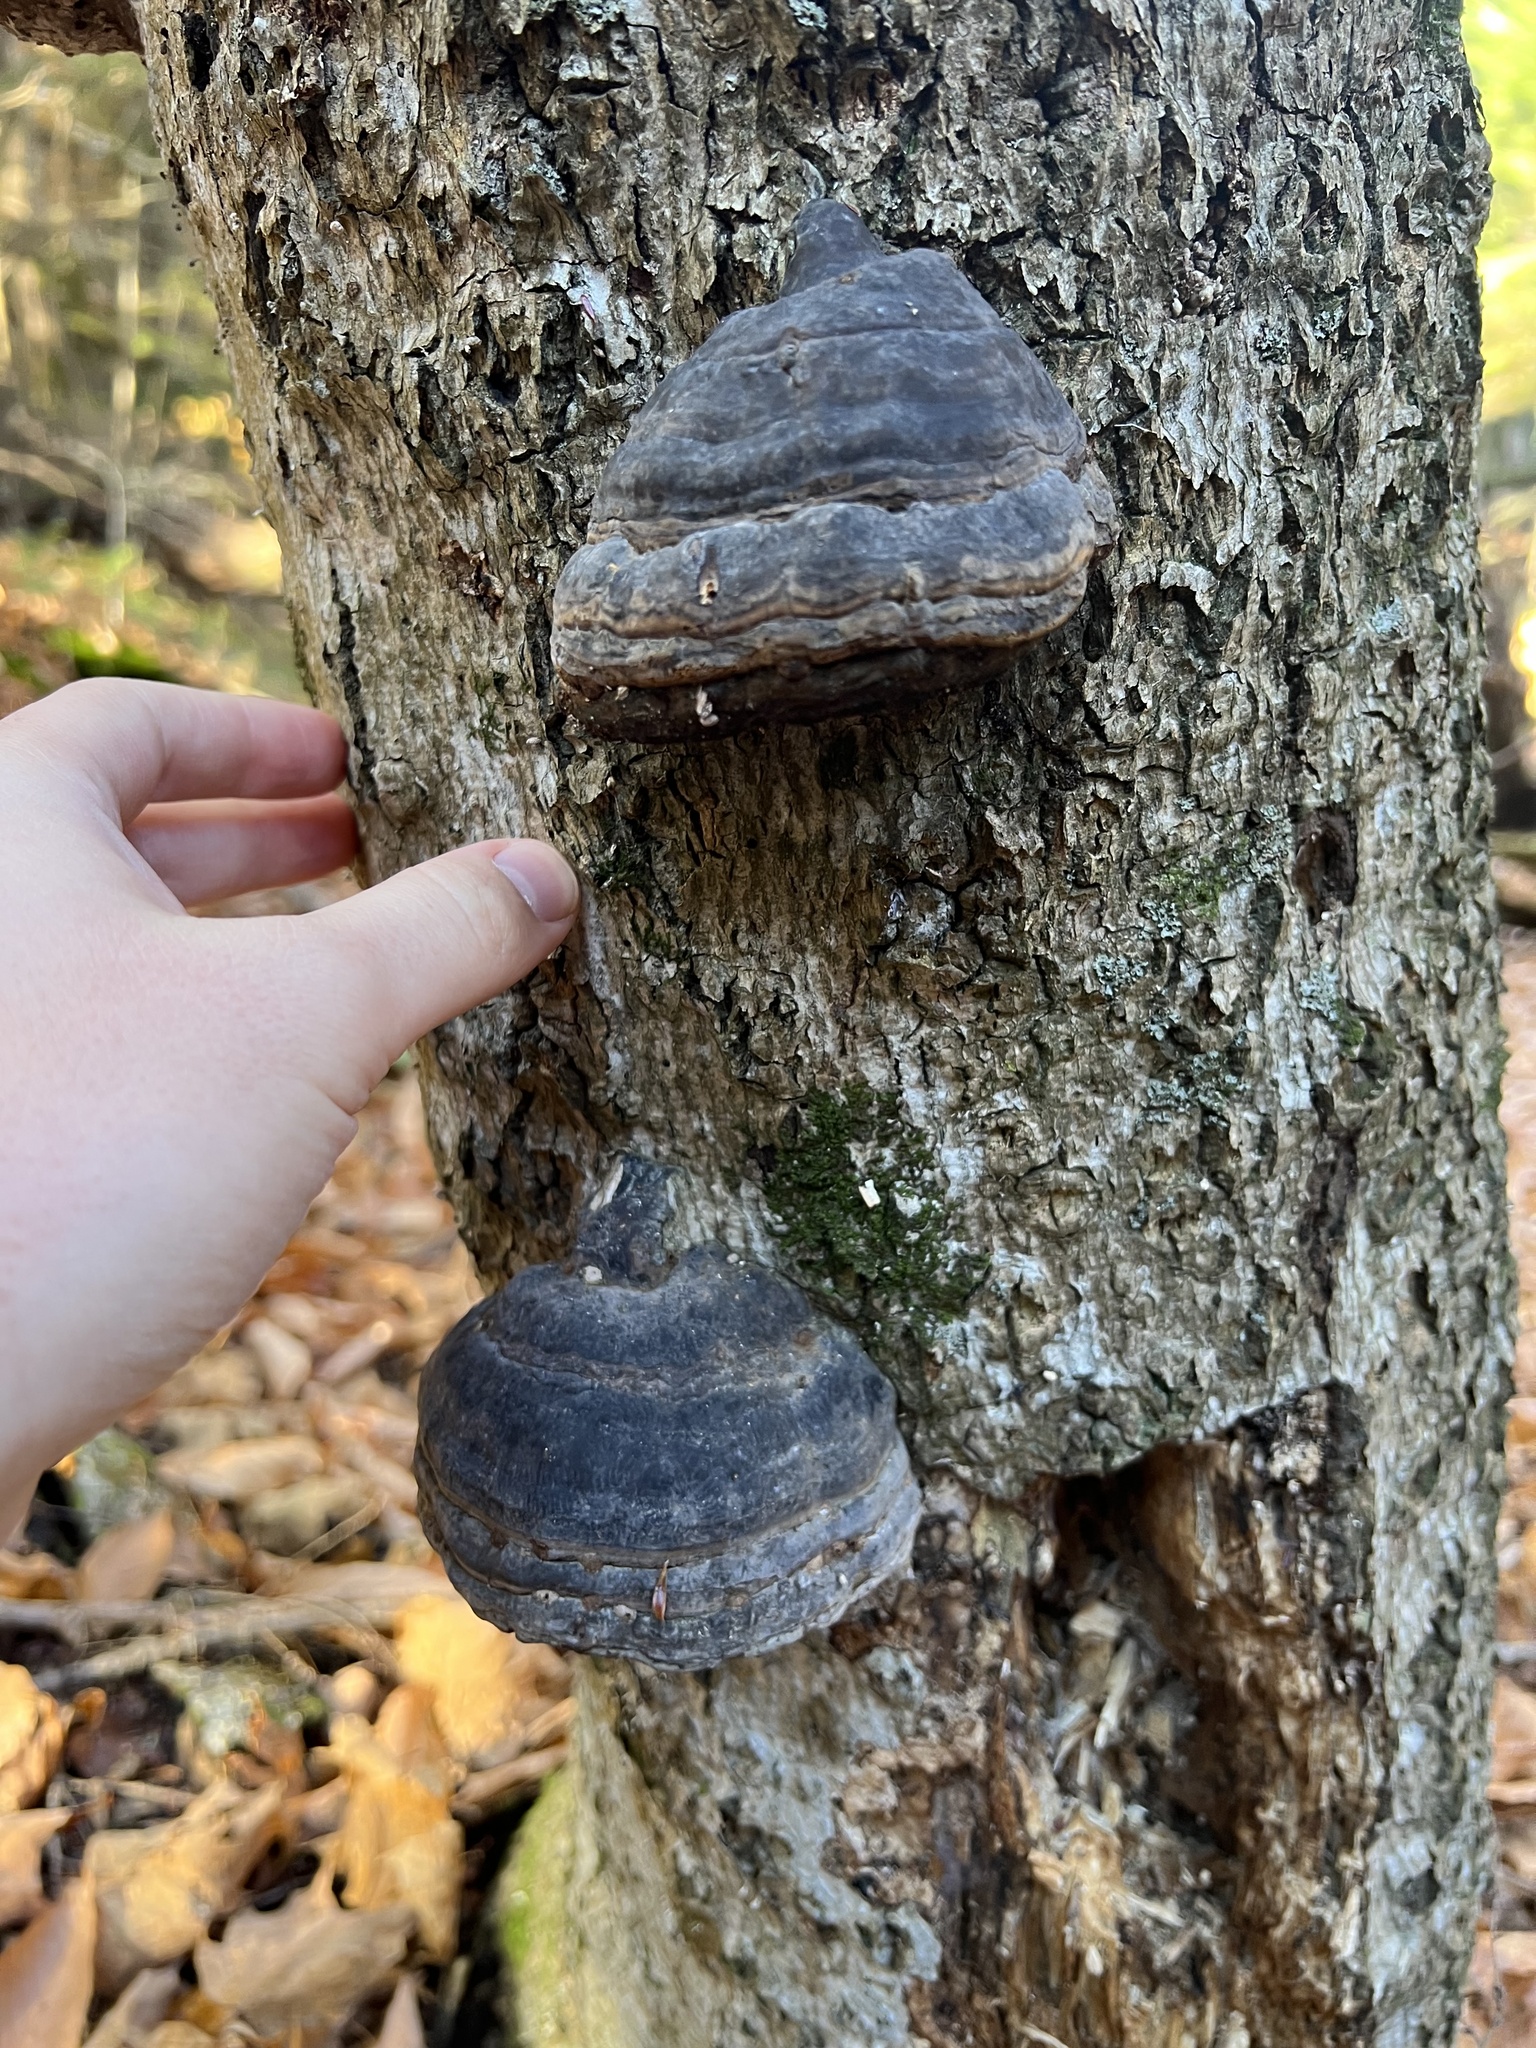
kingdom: Fungi
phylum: Basidiomycota
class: Agaricomycetes
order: Polyporales
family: Polyporaceae
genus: Fomes
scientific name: Fomes fomentarius
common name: Hoof fungus
